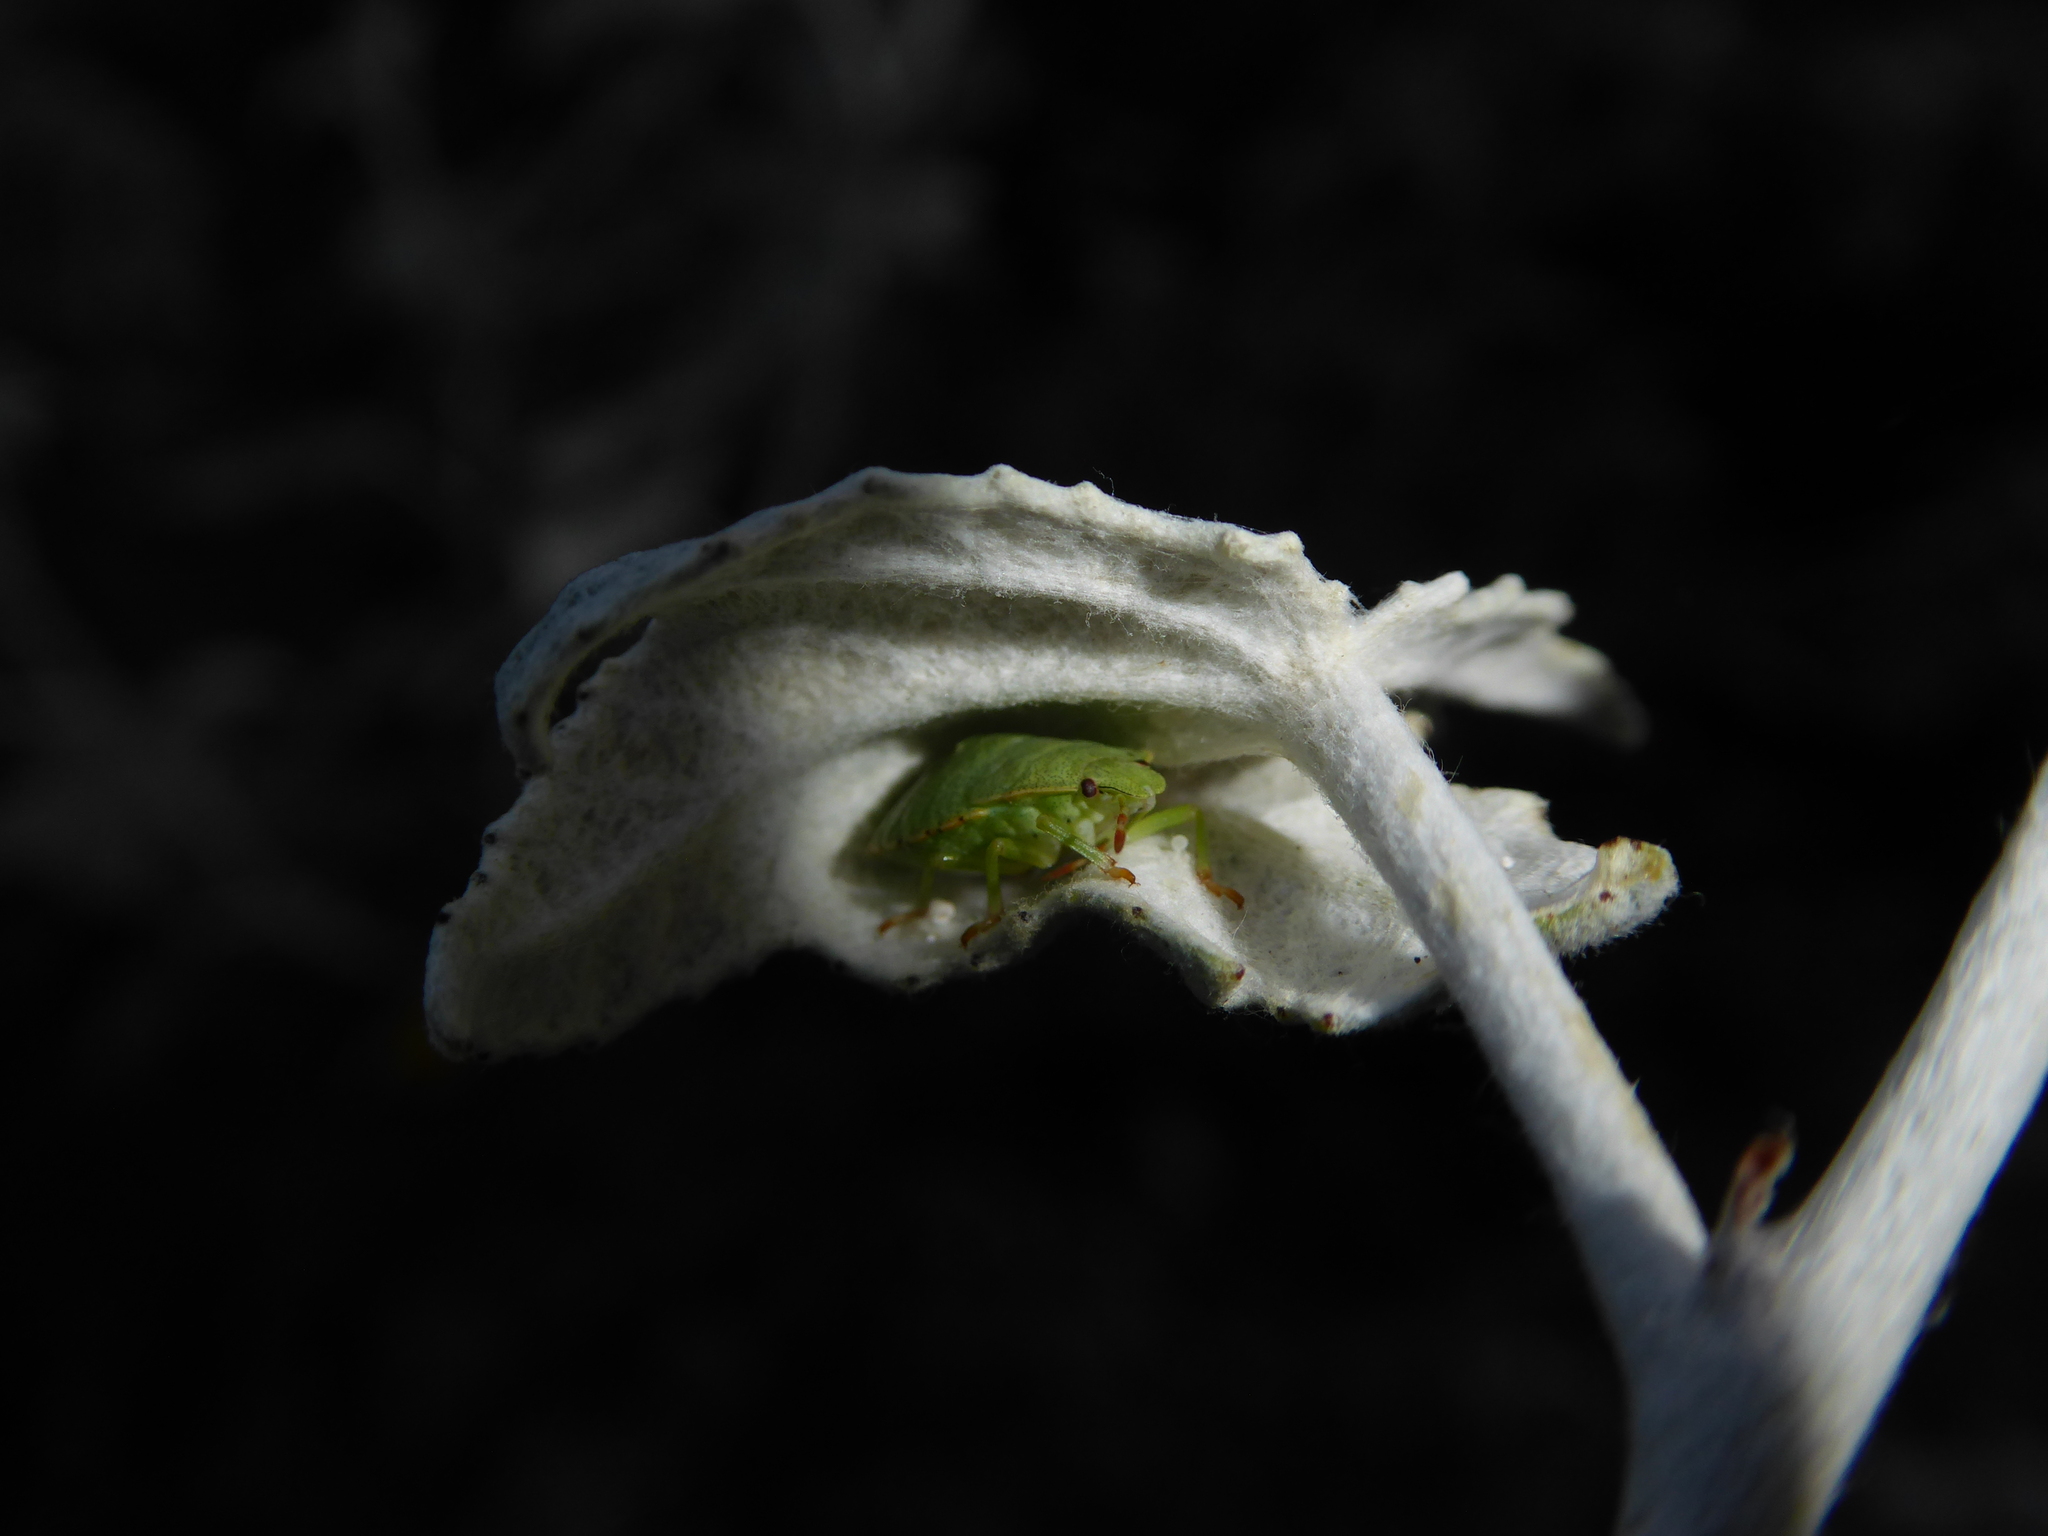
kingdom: Animalia
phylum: Arthropoda
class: Insecta
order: Hemiptera
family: Pentatomidae
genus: Palomena
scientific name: Palomena prasina
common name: Green shieldbug
